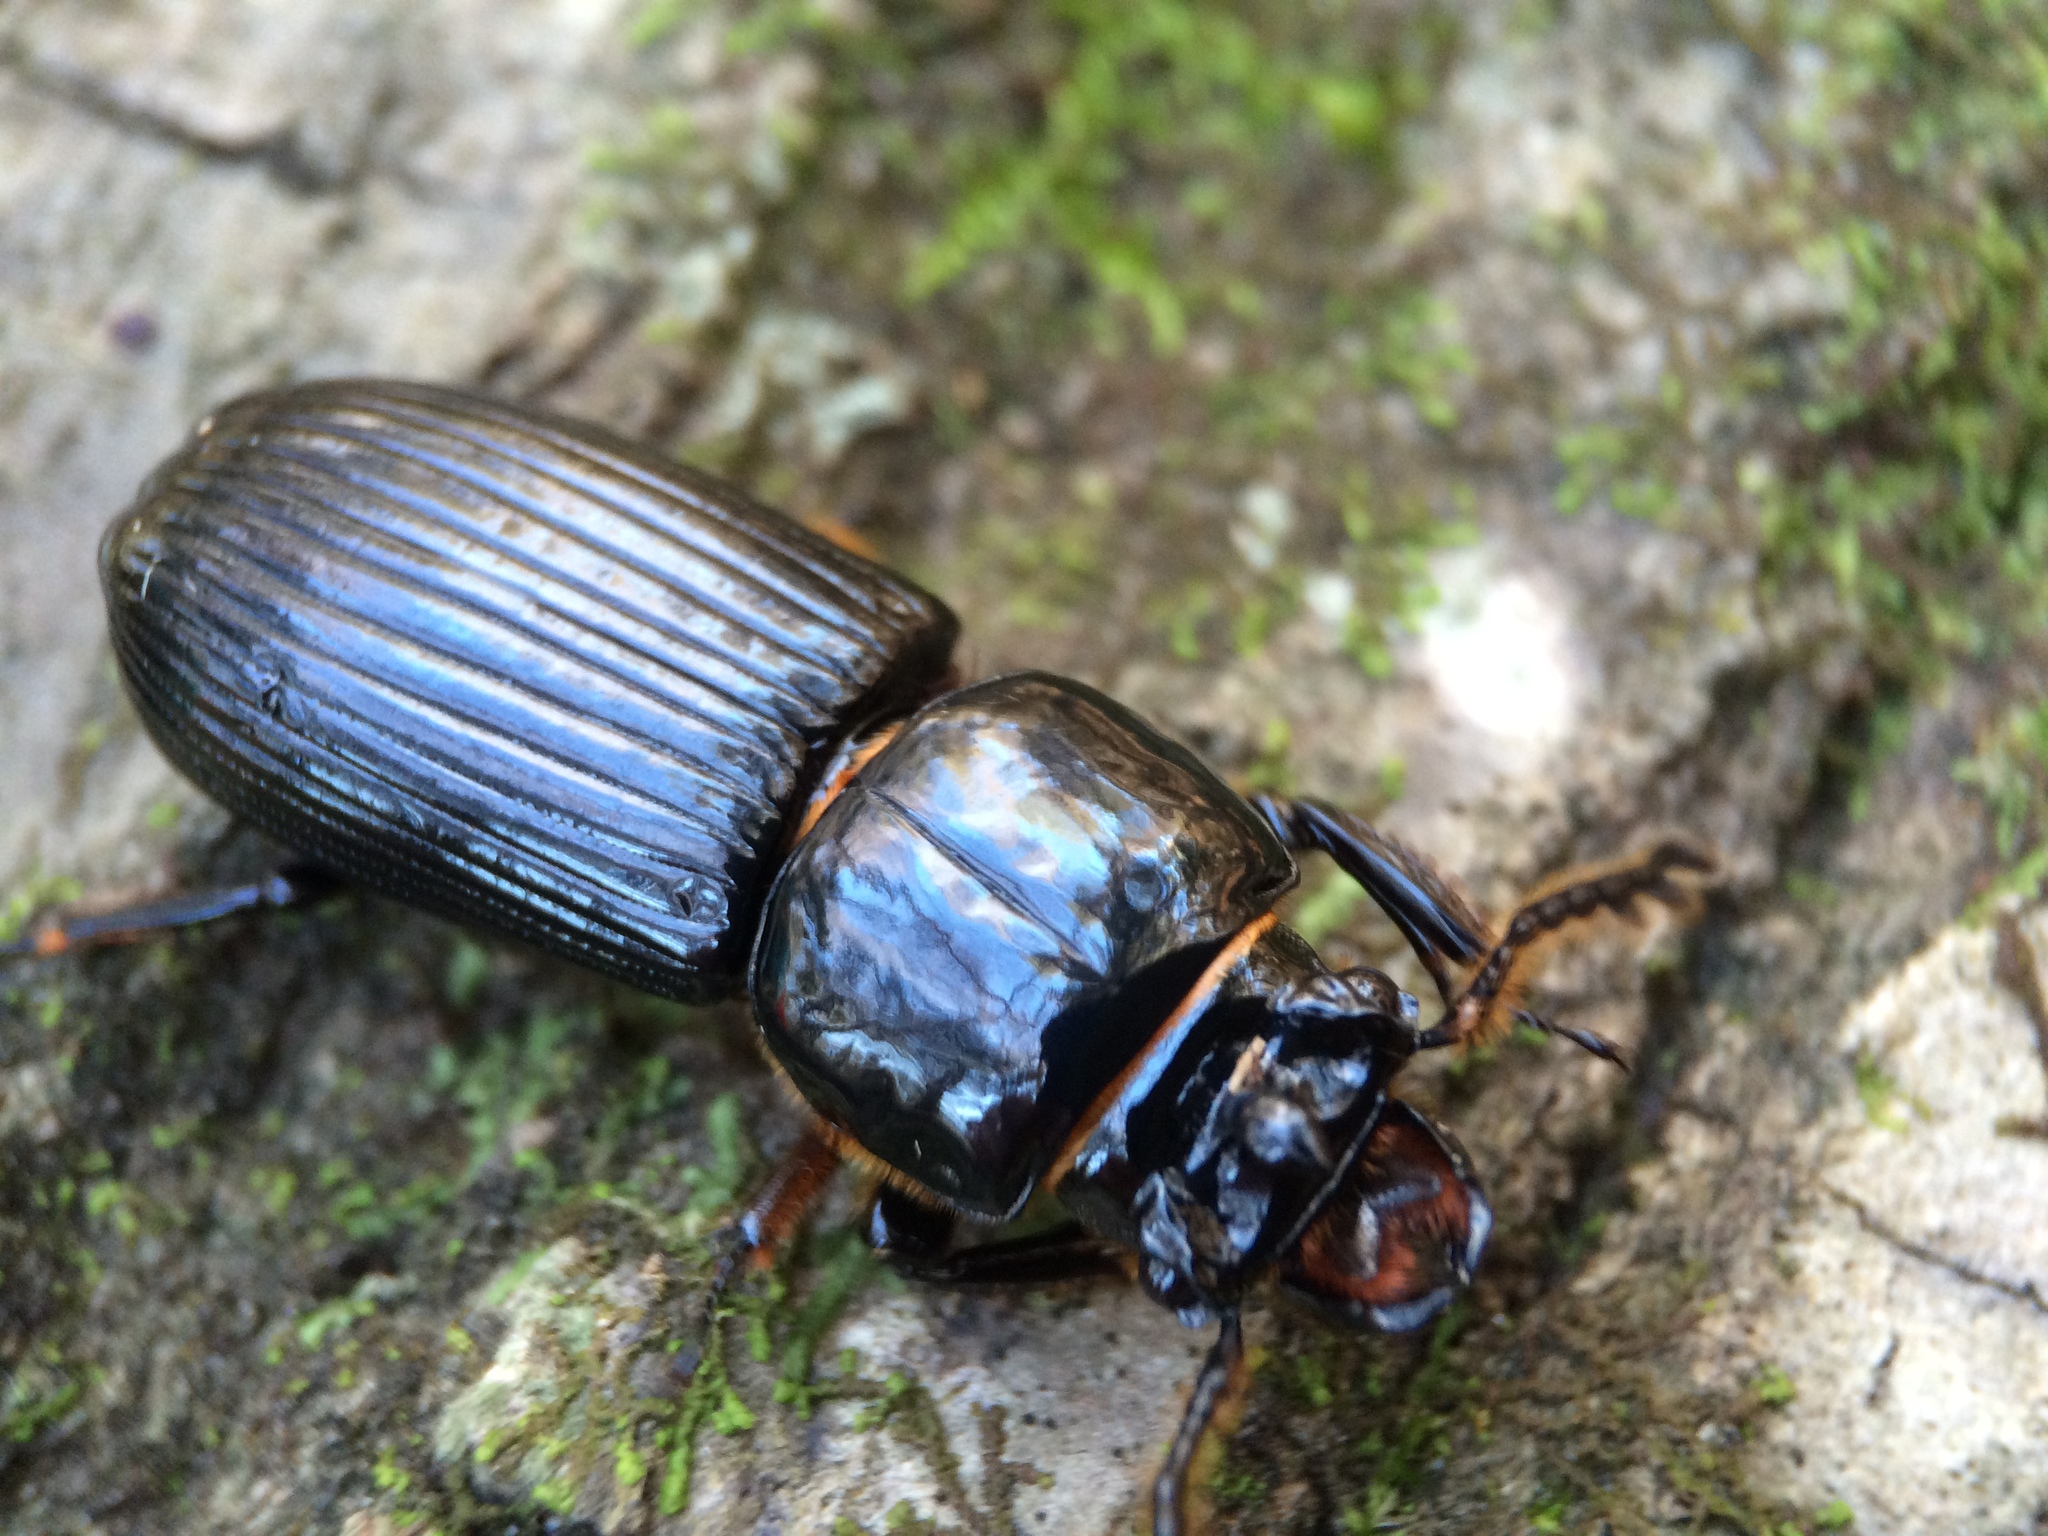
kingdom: Animalia
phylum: Arthropoda
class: Insecta
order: Coleoptera
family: Passalidae
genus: Odontotaenius
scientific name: Odontotaenius disjunctus
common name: Patent leather beetle
